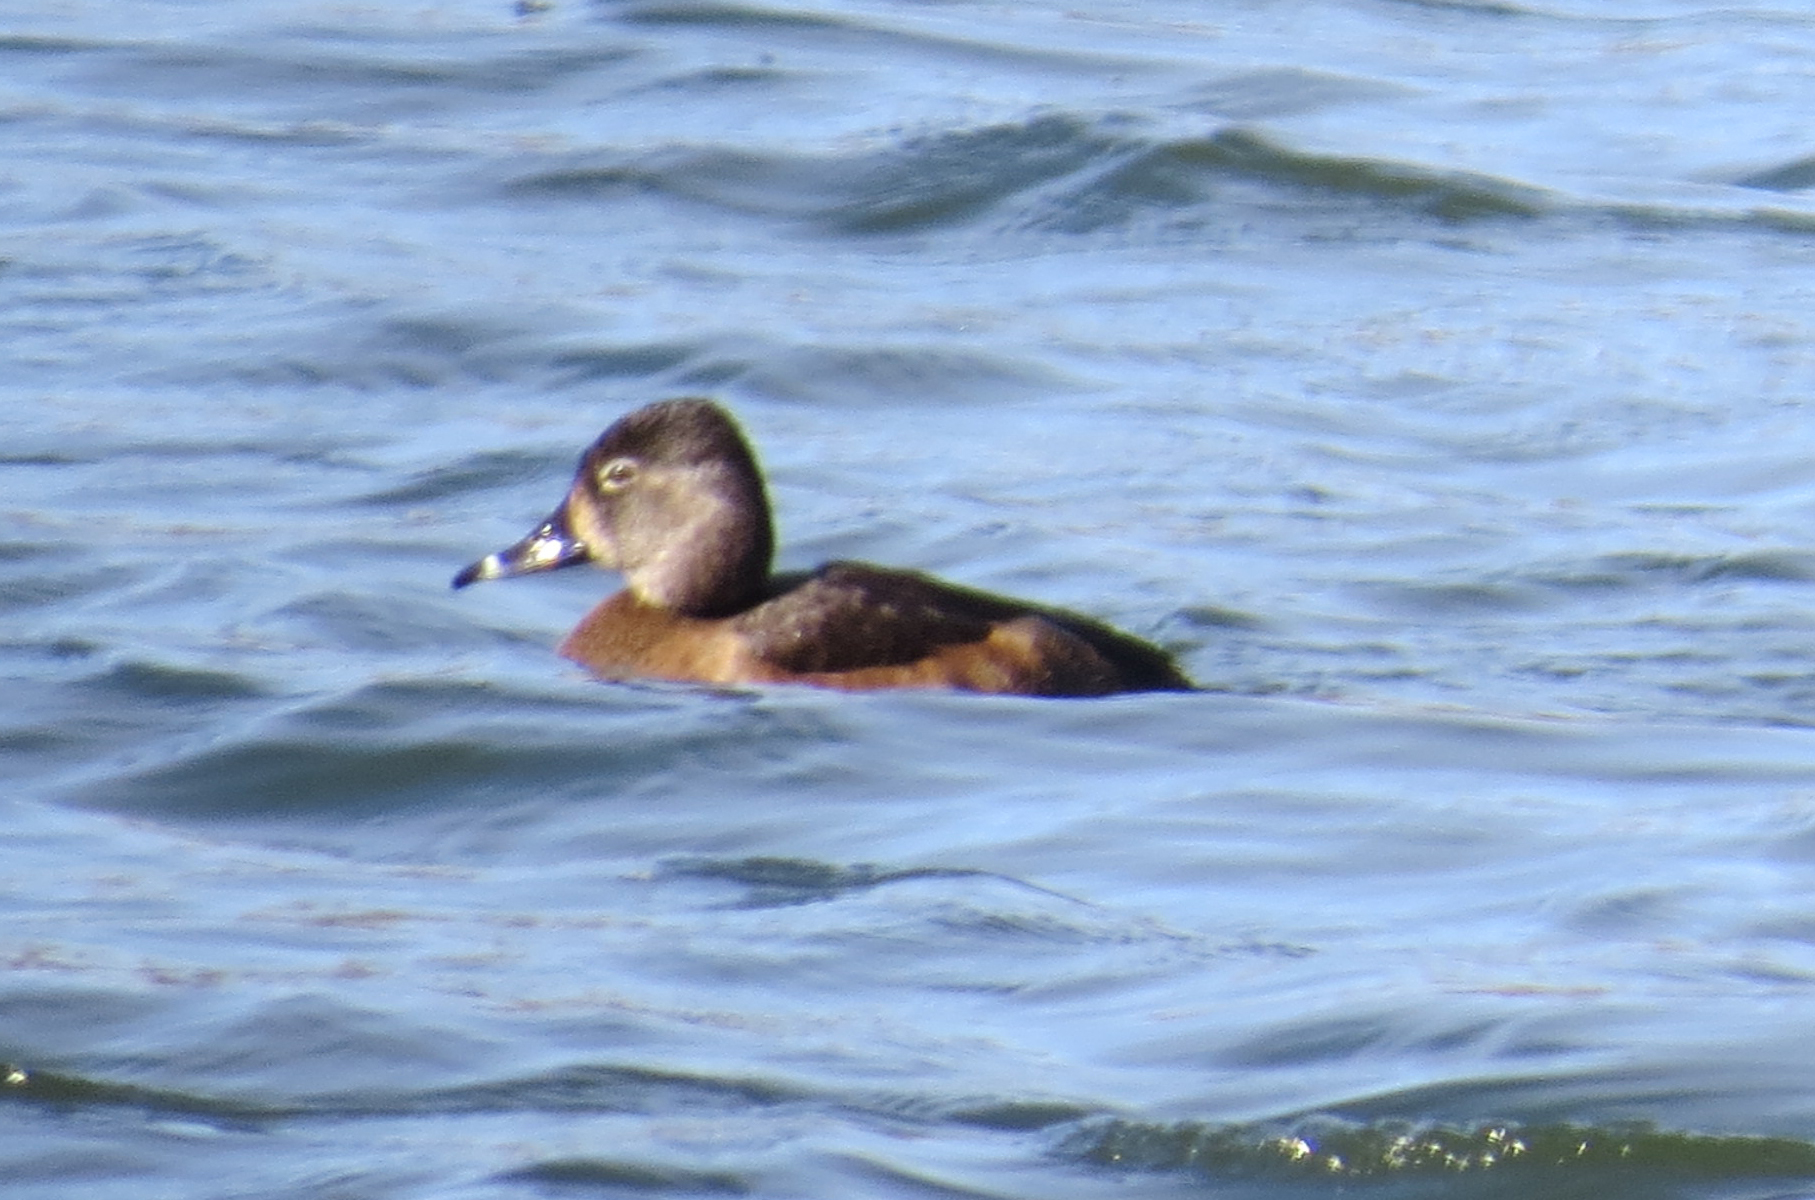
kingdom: Animalia
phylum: Chordata
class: Aves
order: Anseriformes
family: Anatidae
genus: Aythya
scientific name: Aythya collaris
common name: Ring-necked duck
